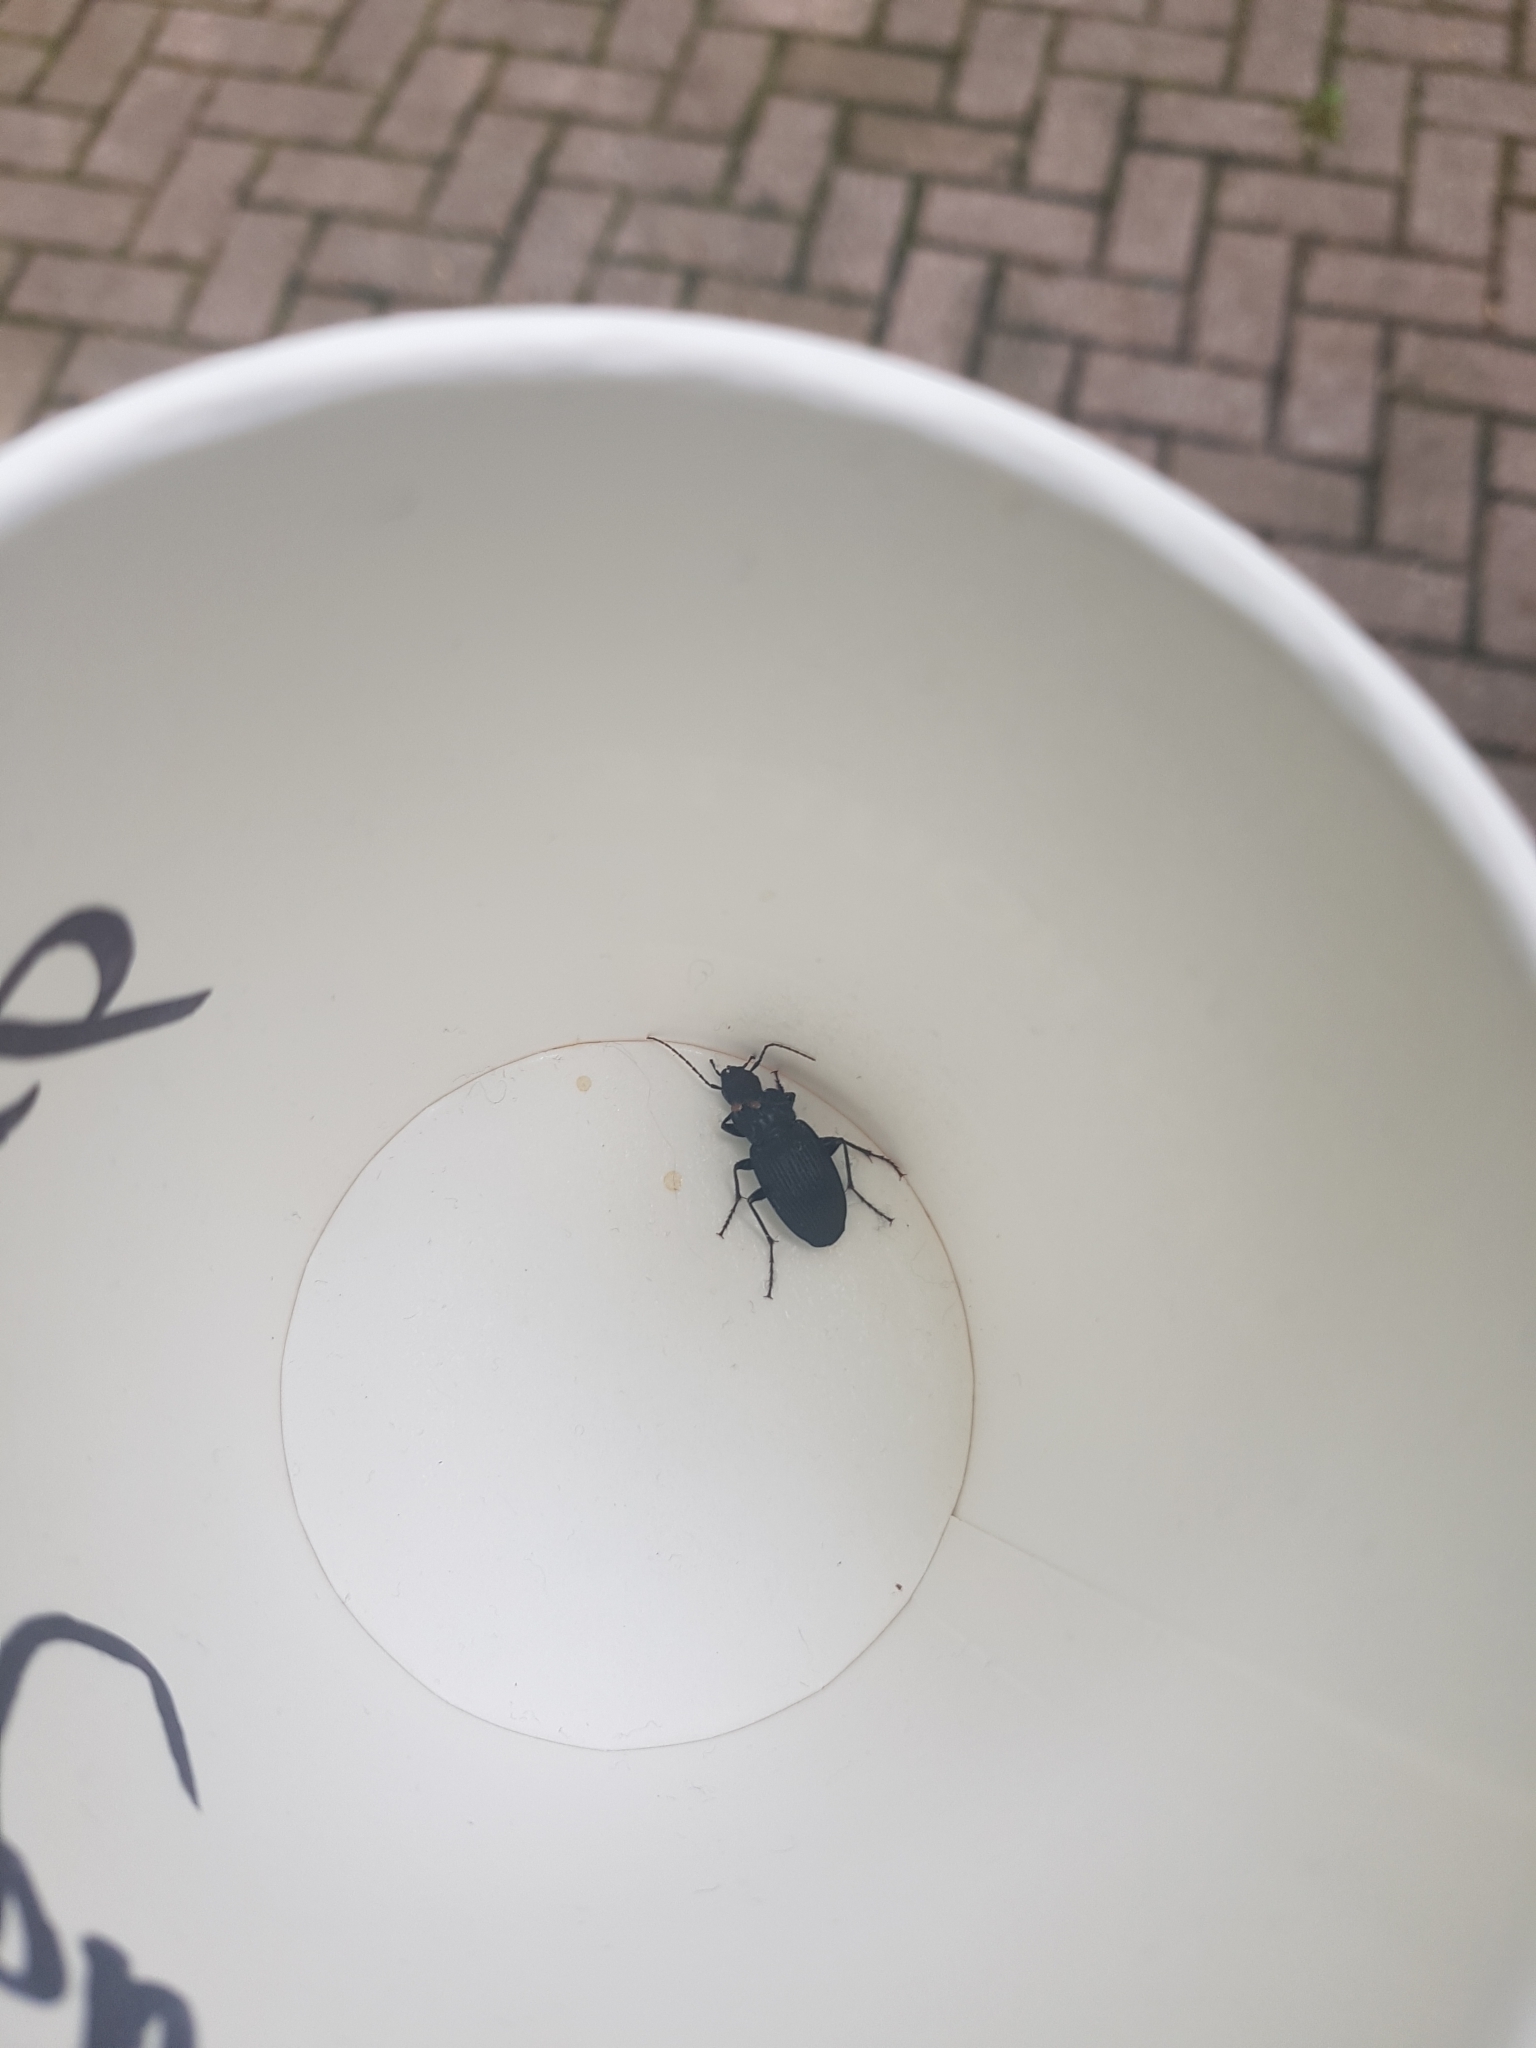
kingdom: Animalia
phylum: Arthropoda
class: Insecta
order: Coleoptera
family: Carabidae
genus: Dicaelus
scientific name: Dicaelus
